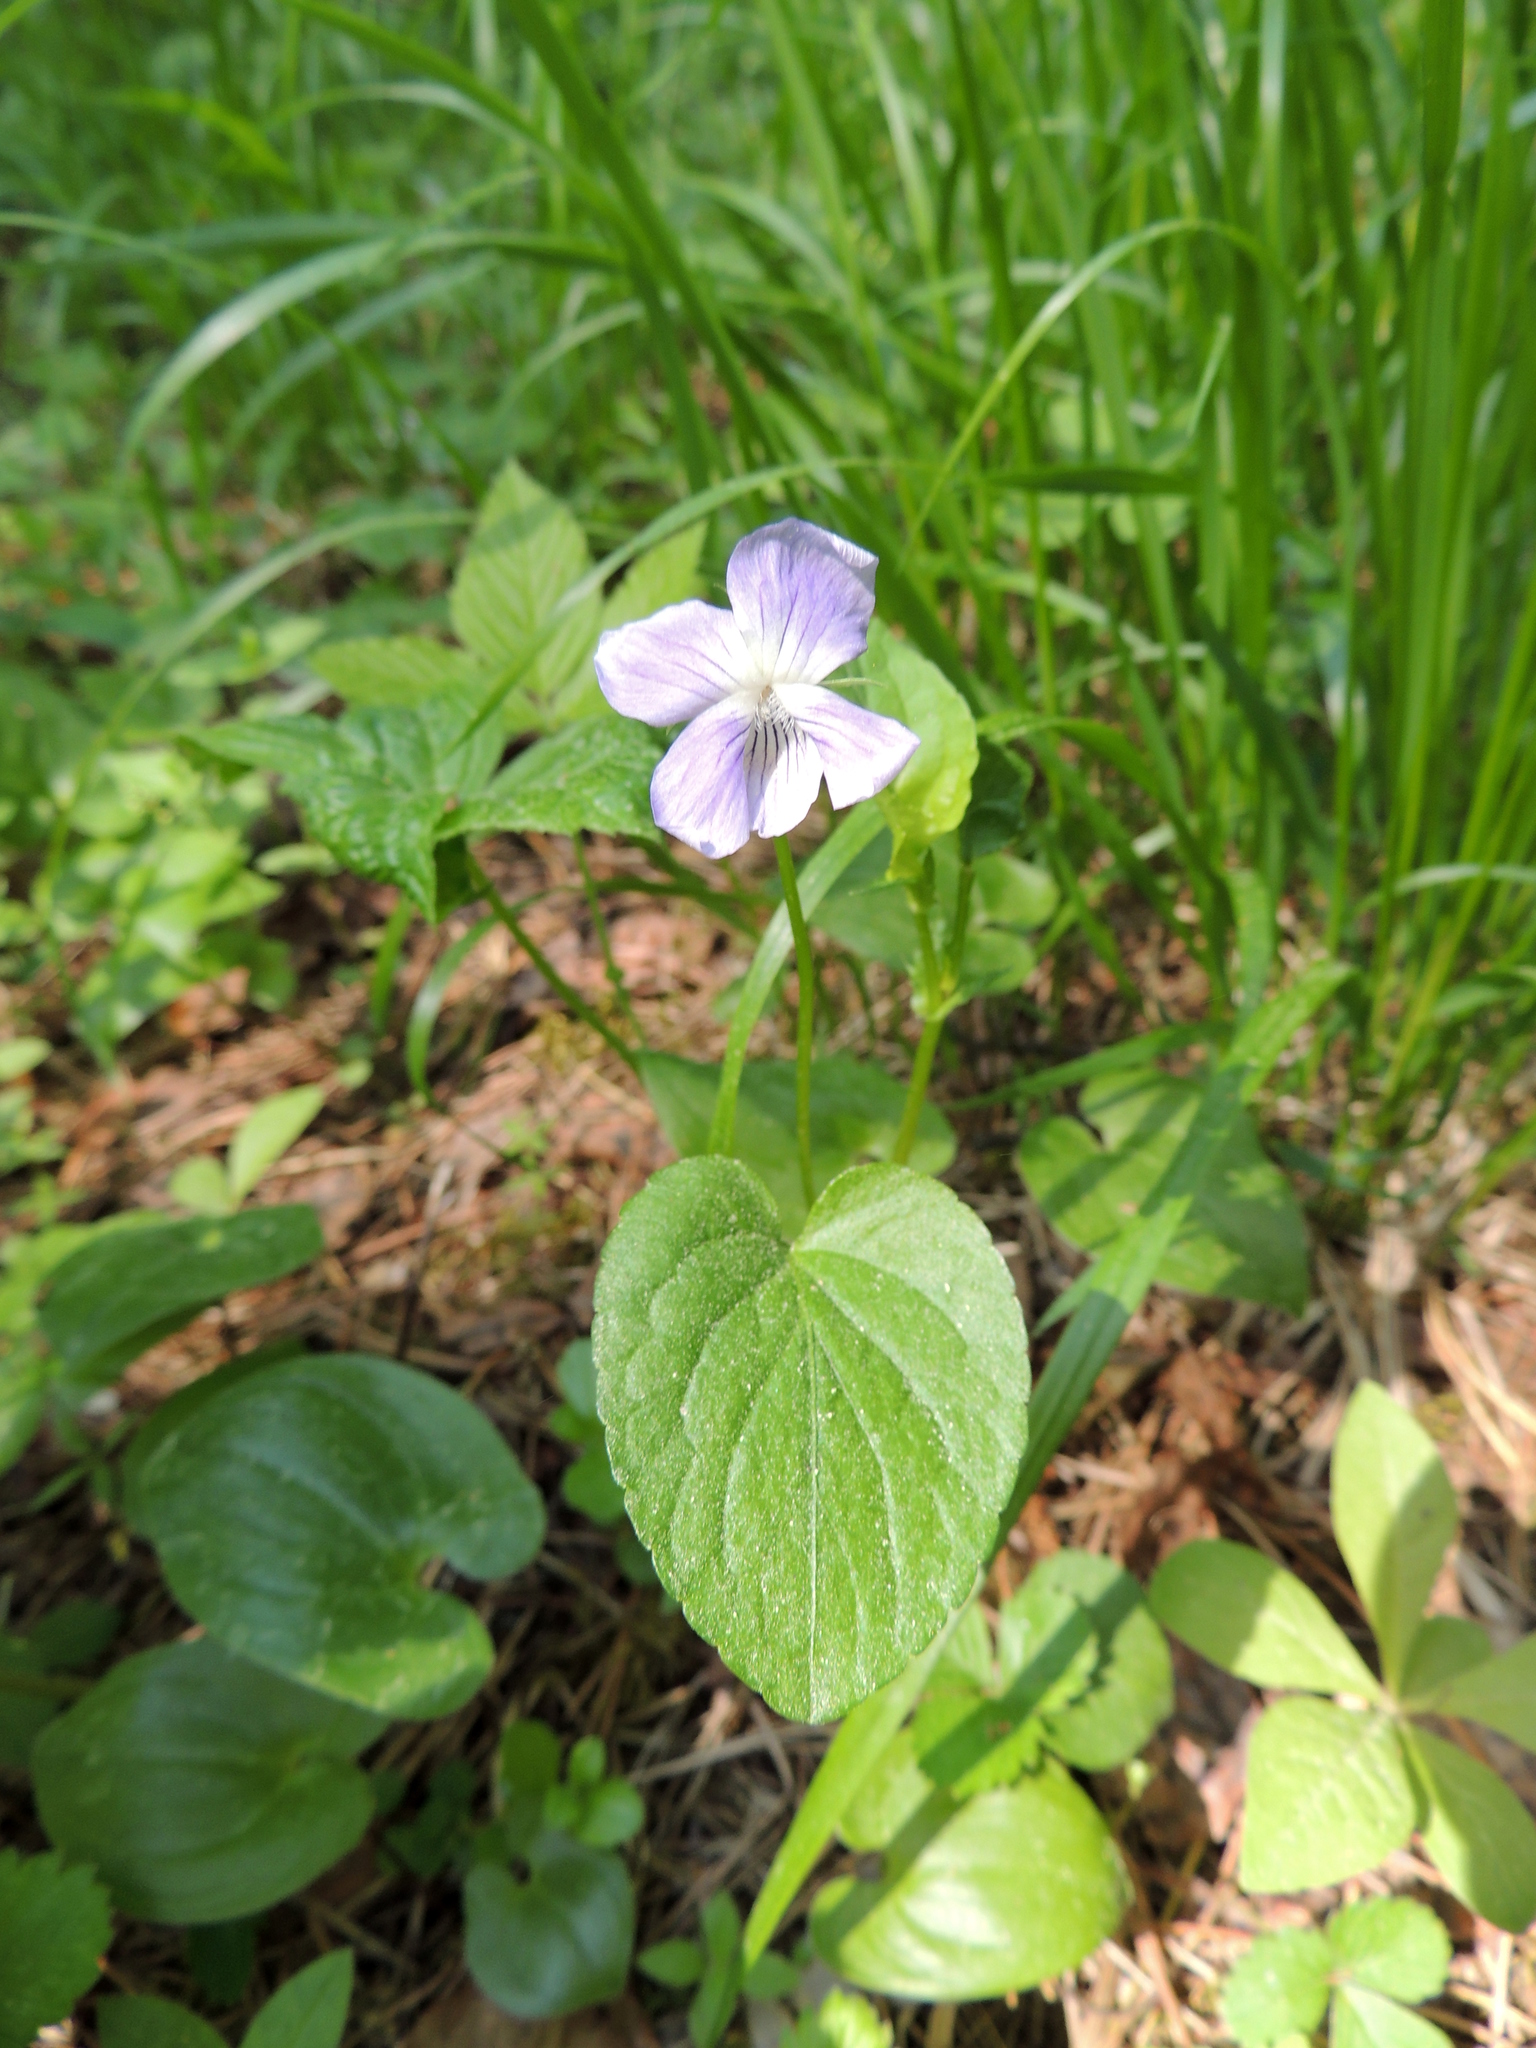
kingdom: Plantae
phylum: Tracheophyta
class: Magnoliopsida
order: Malpighiales
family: Violaceae
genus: Viola
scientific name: Viola
